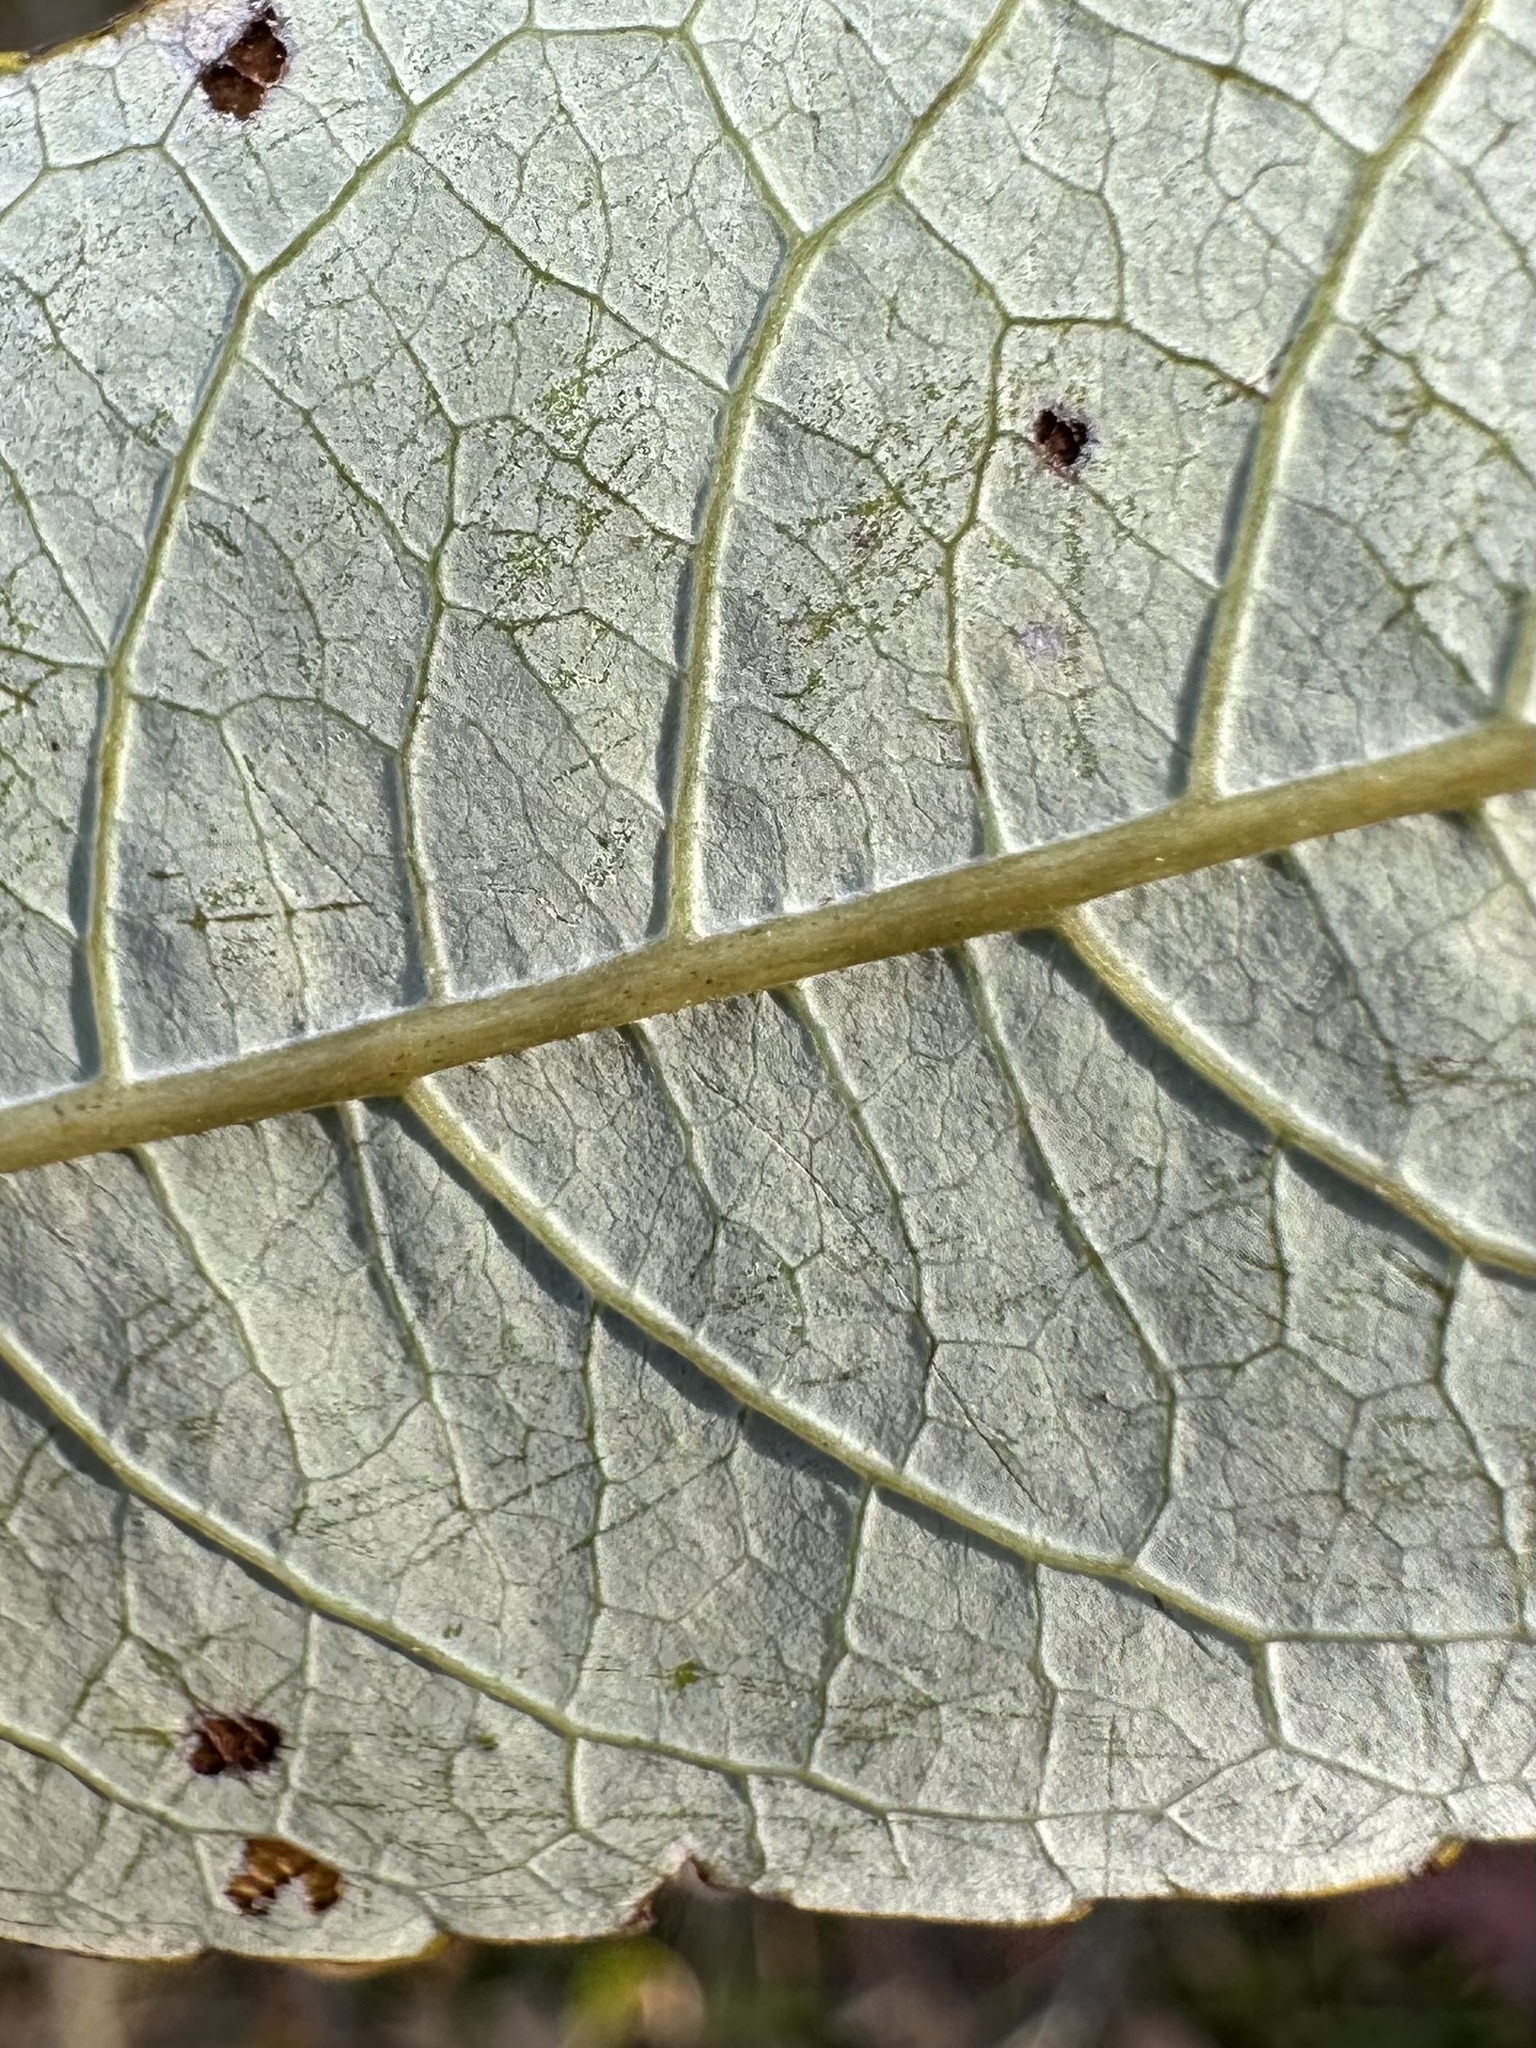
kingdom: Plantae
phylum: Tracheophyta
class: Magnoliopsida
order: Malpighiales
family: Salicaceae
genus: Salix
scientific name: Salix discolor
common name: Glaucous willow
